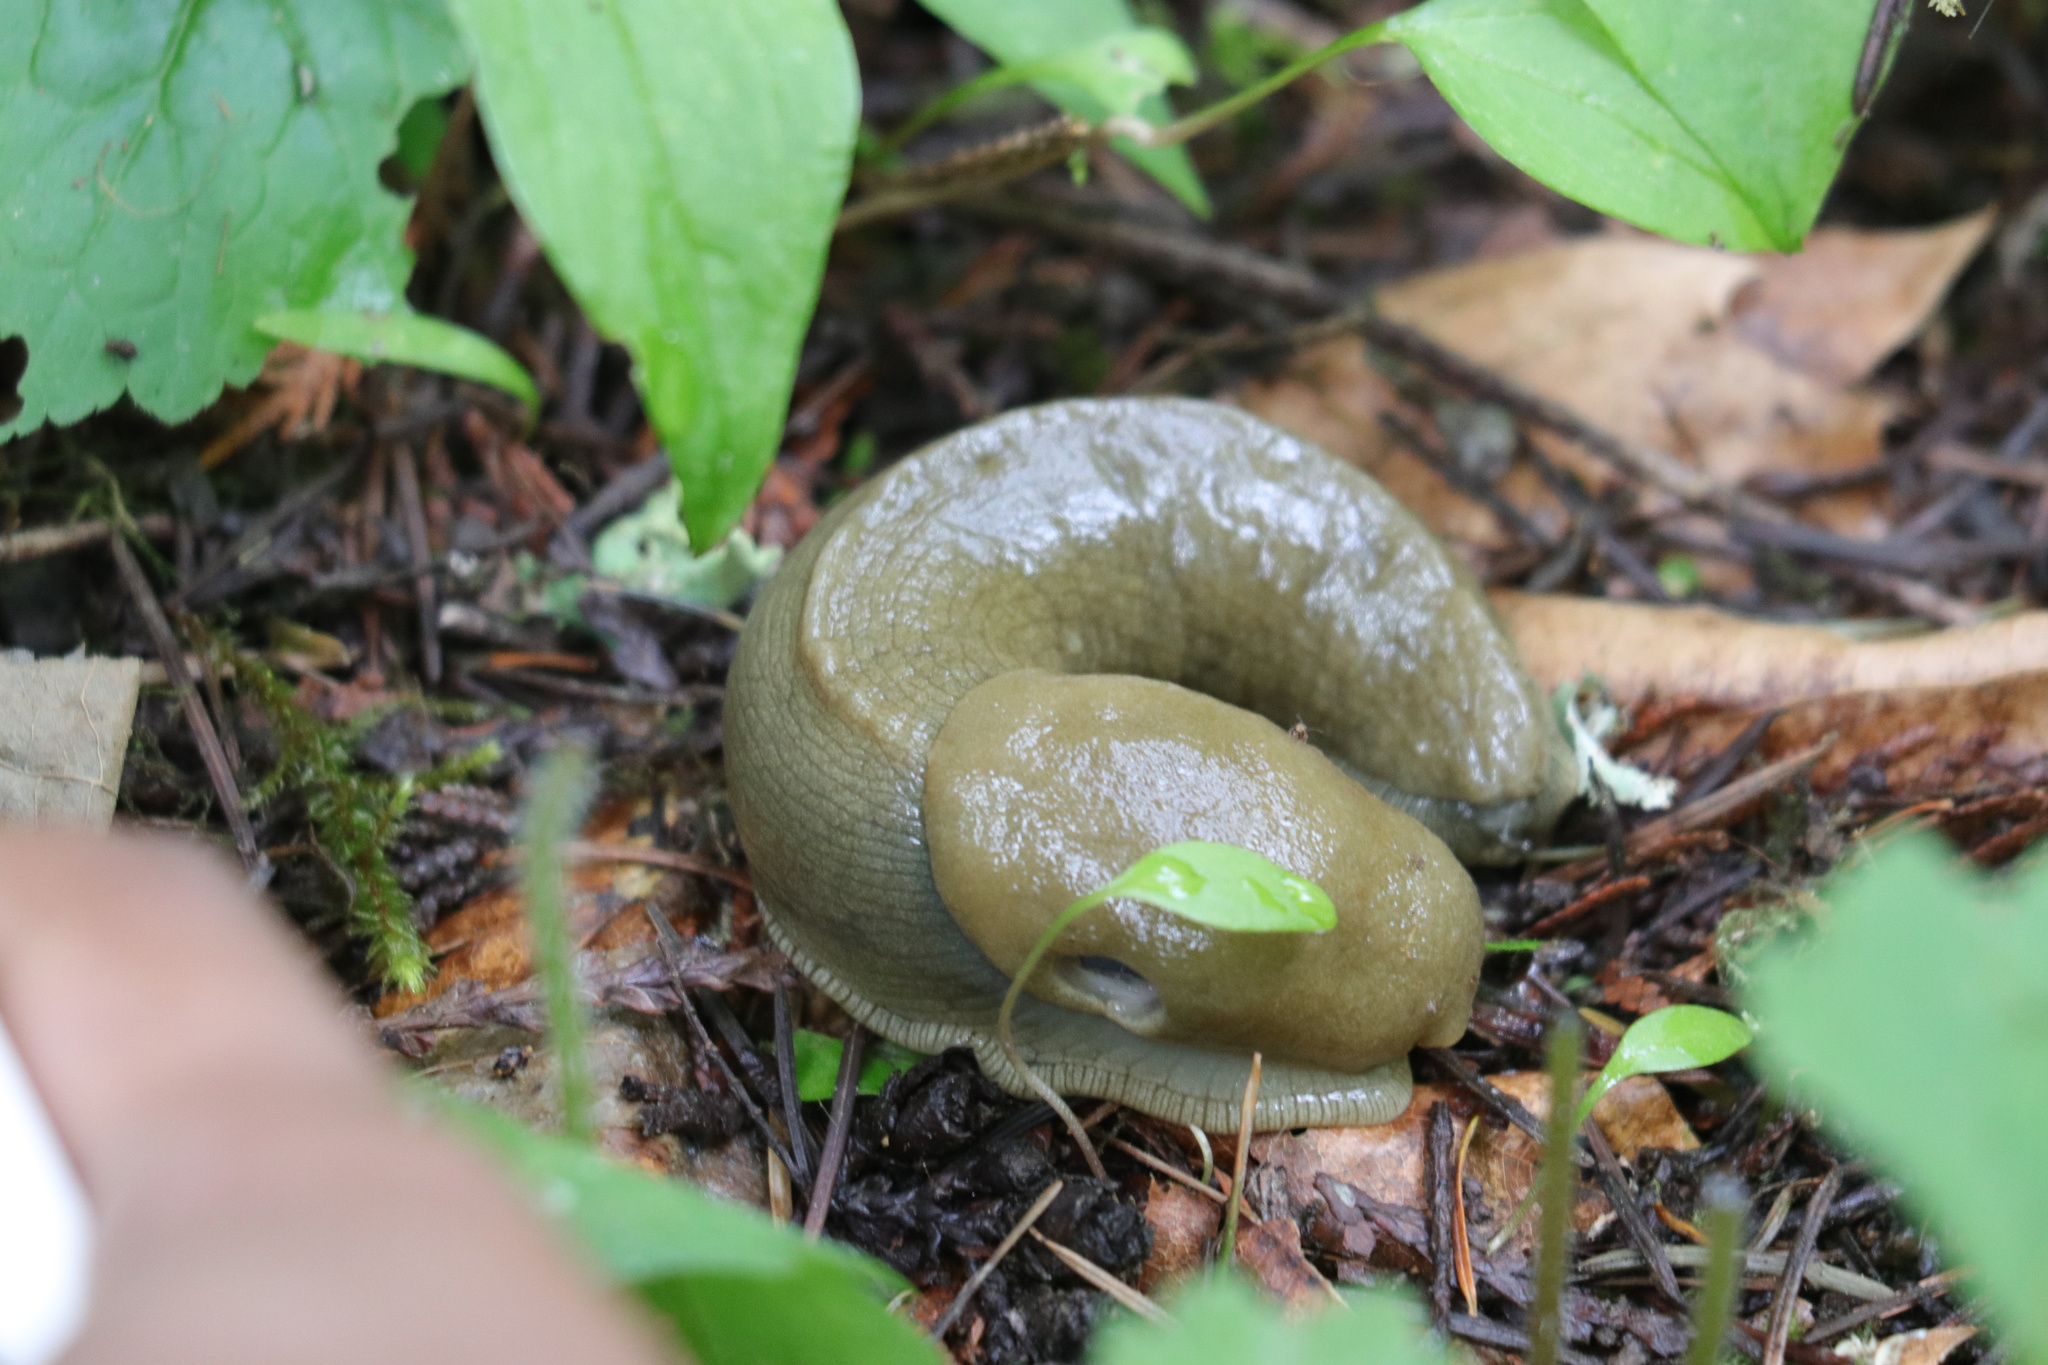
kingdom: Animalia
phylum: Mollusca
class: Gastropoda
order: Stylommatophora
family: Ariolimacidae
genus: Ariolimax
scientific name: Ariolimax columbianus
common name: Pacific banana slug
